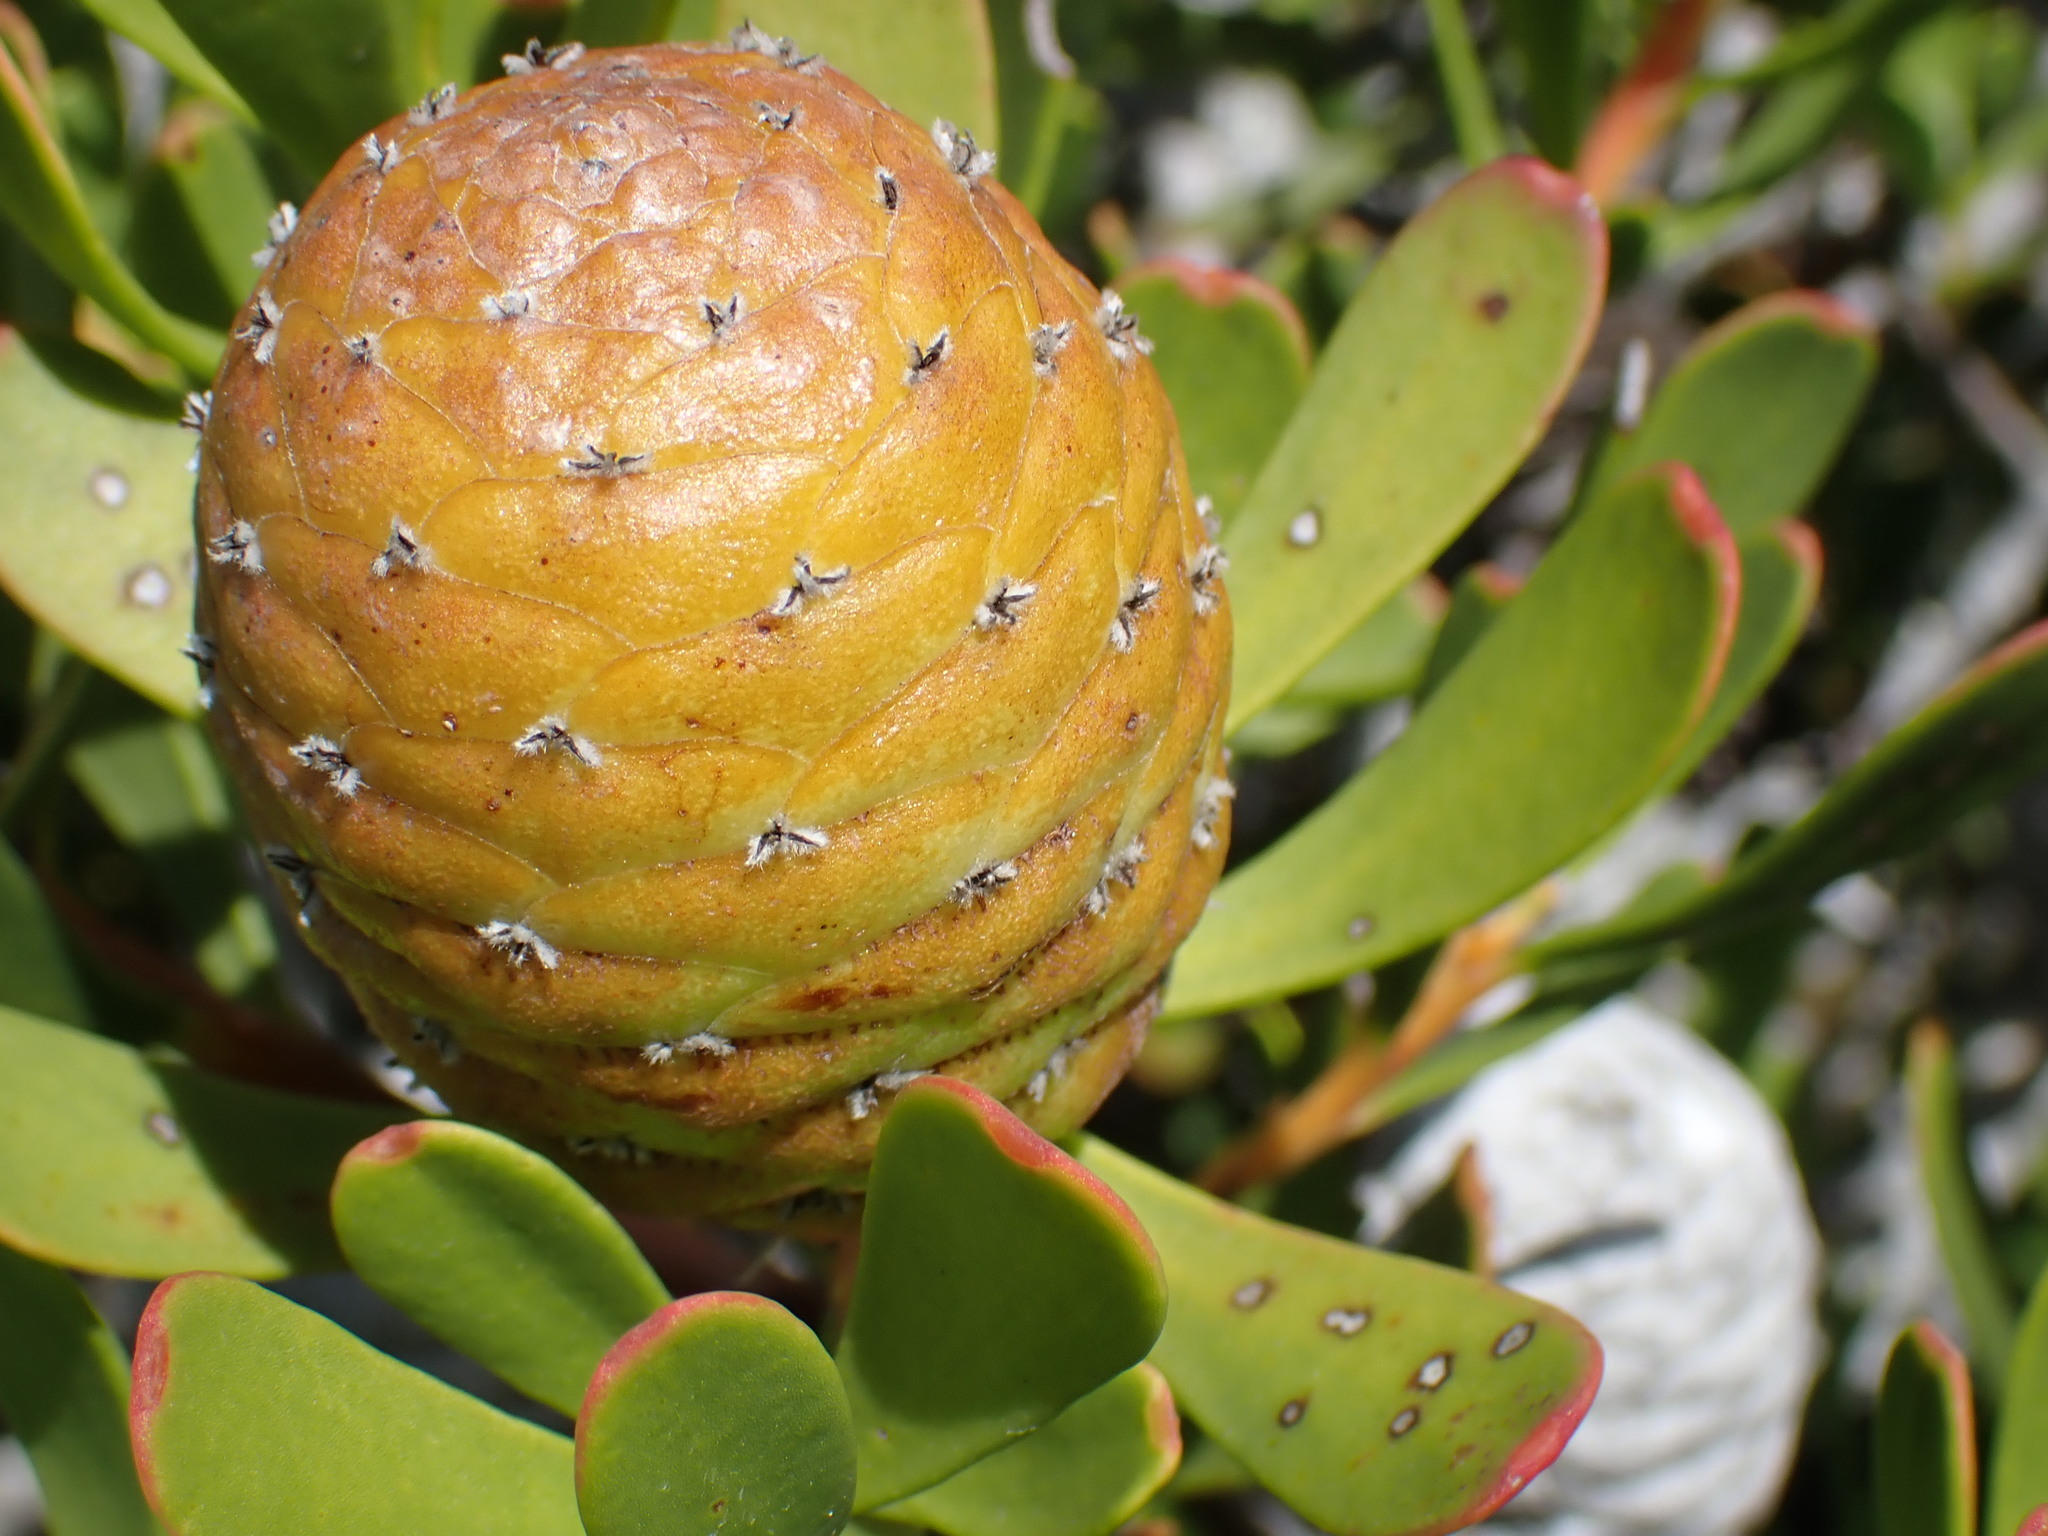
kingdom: Plantae
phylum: Tracheophyta
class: Magnoliopsida
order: Proteales
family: Proteaceae
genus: Leucadendron
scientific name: Leucadendron muirii
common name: Silver-ball conebush
